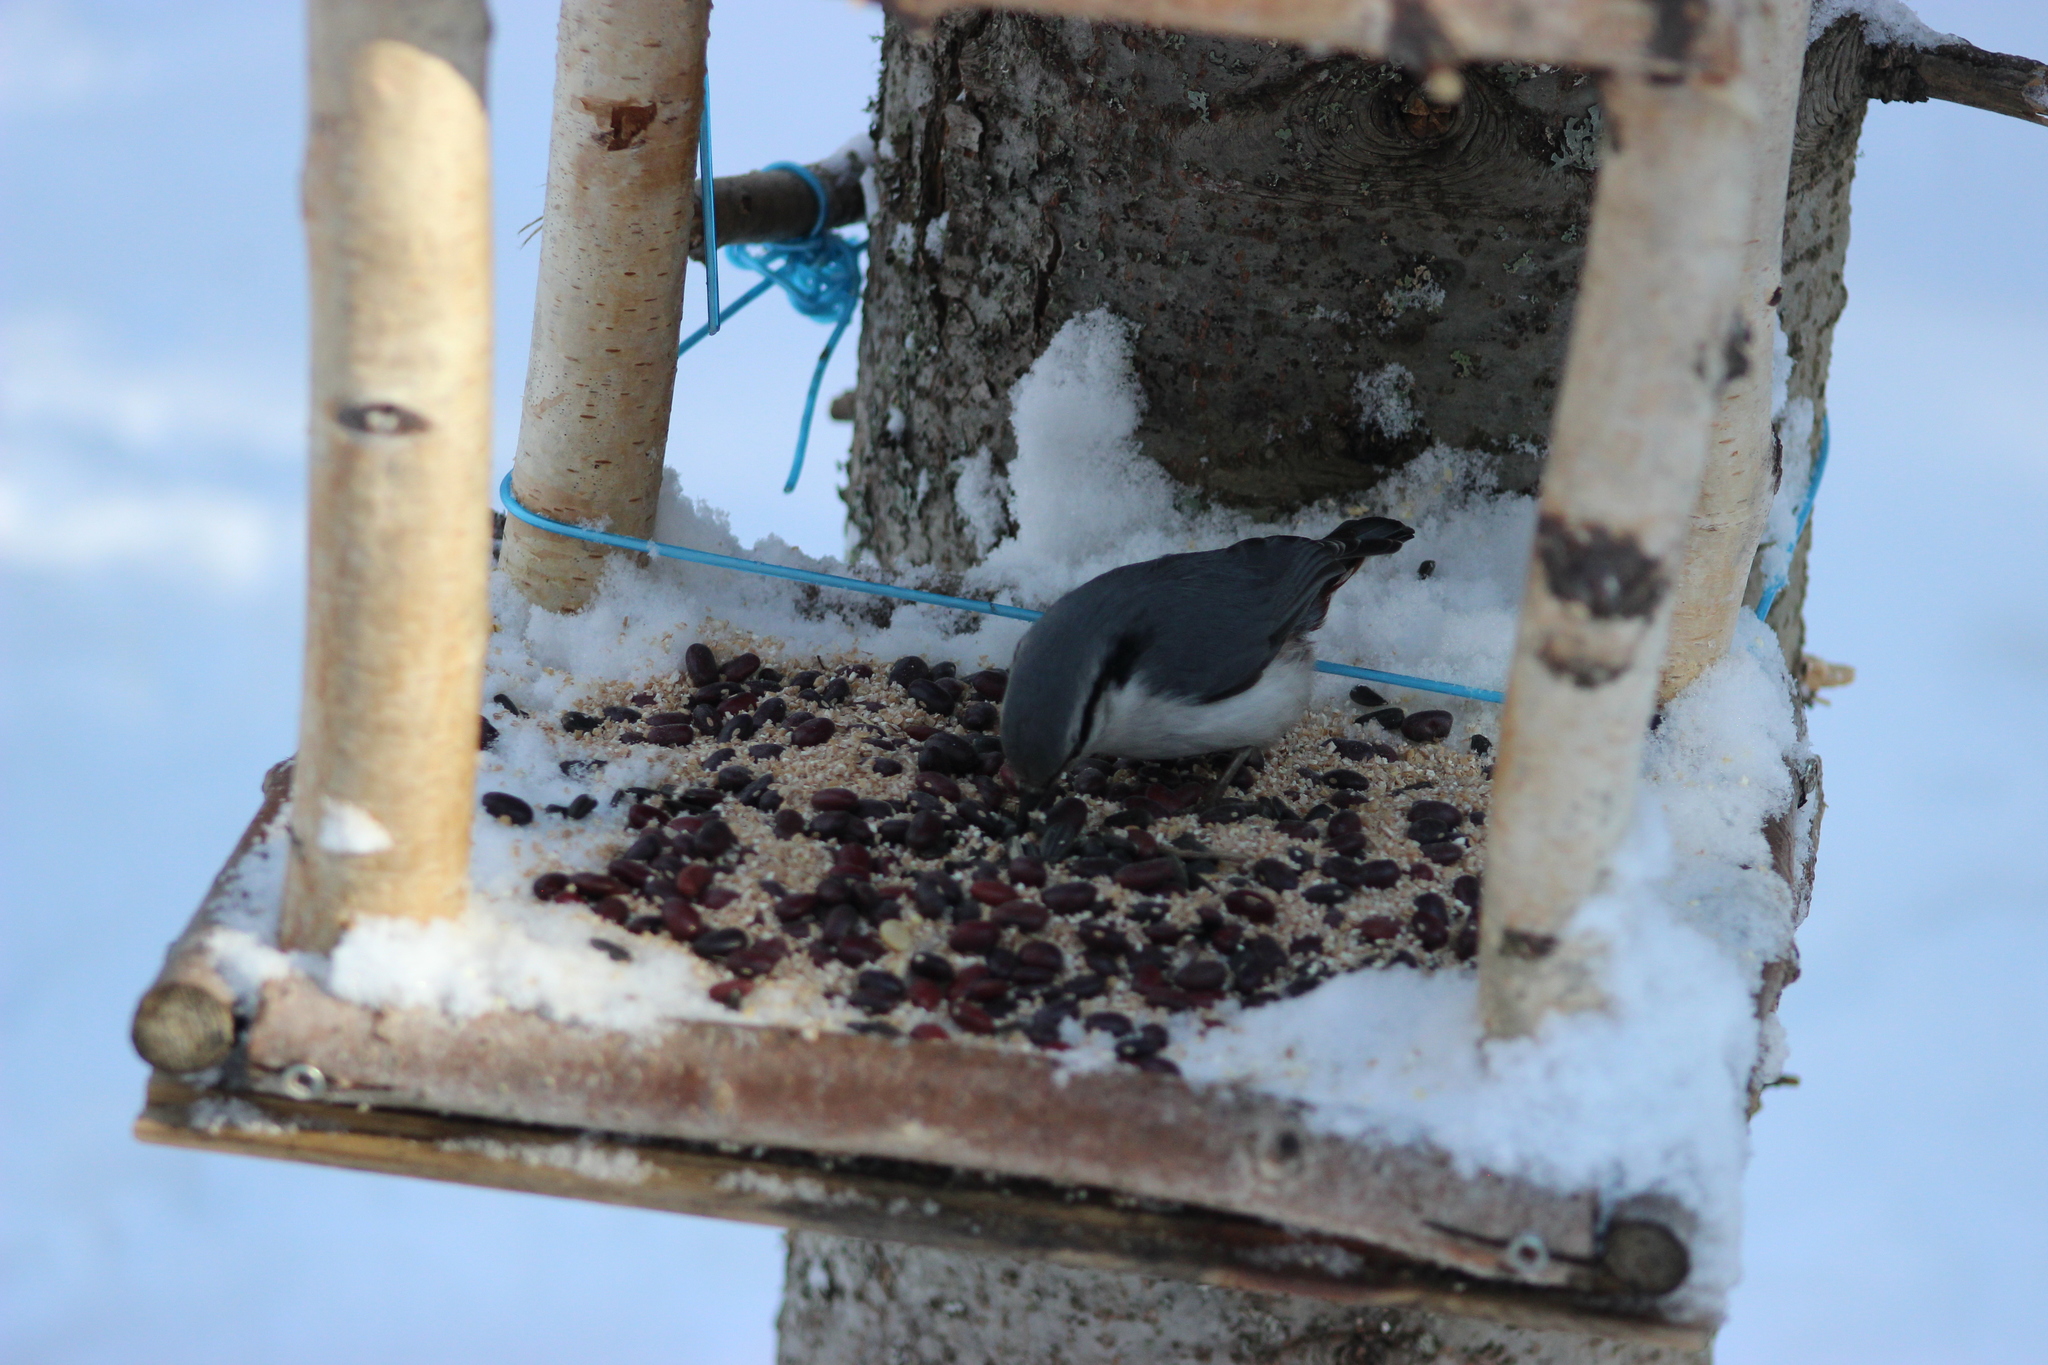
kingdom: Animalia
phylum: Chordata
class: Aves
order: Passeriformes
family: Sittidae
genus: Sitta
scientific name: Sitta europaea
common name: Eurasian nuthatch
